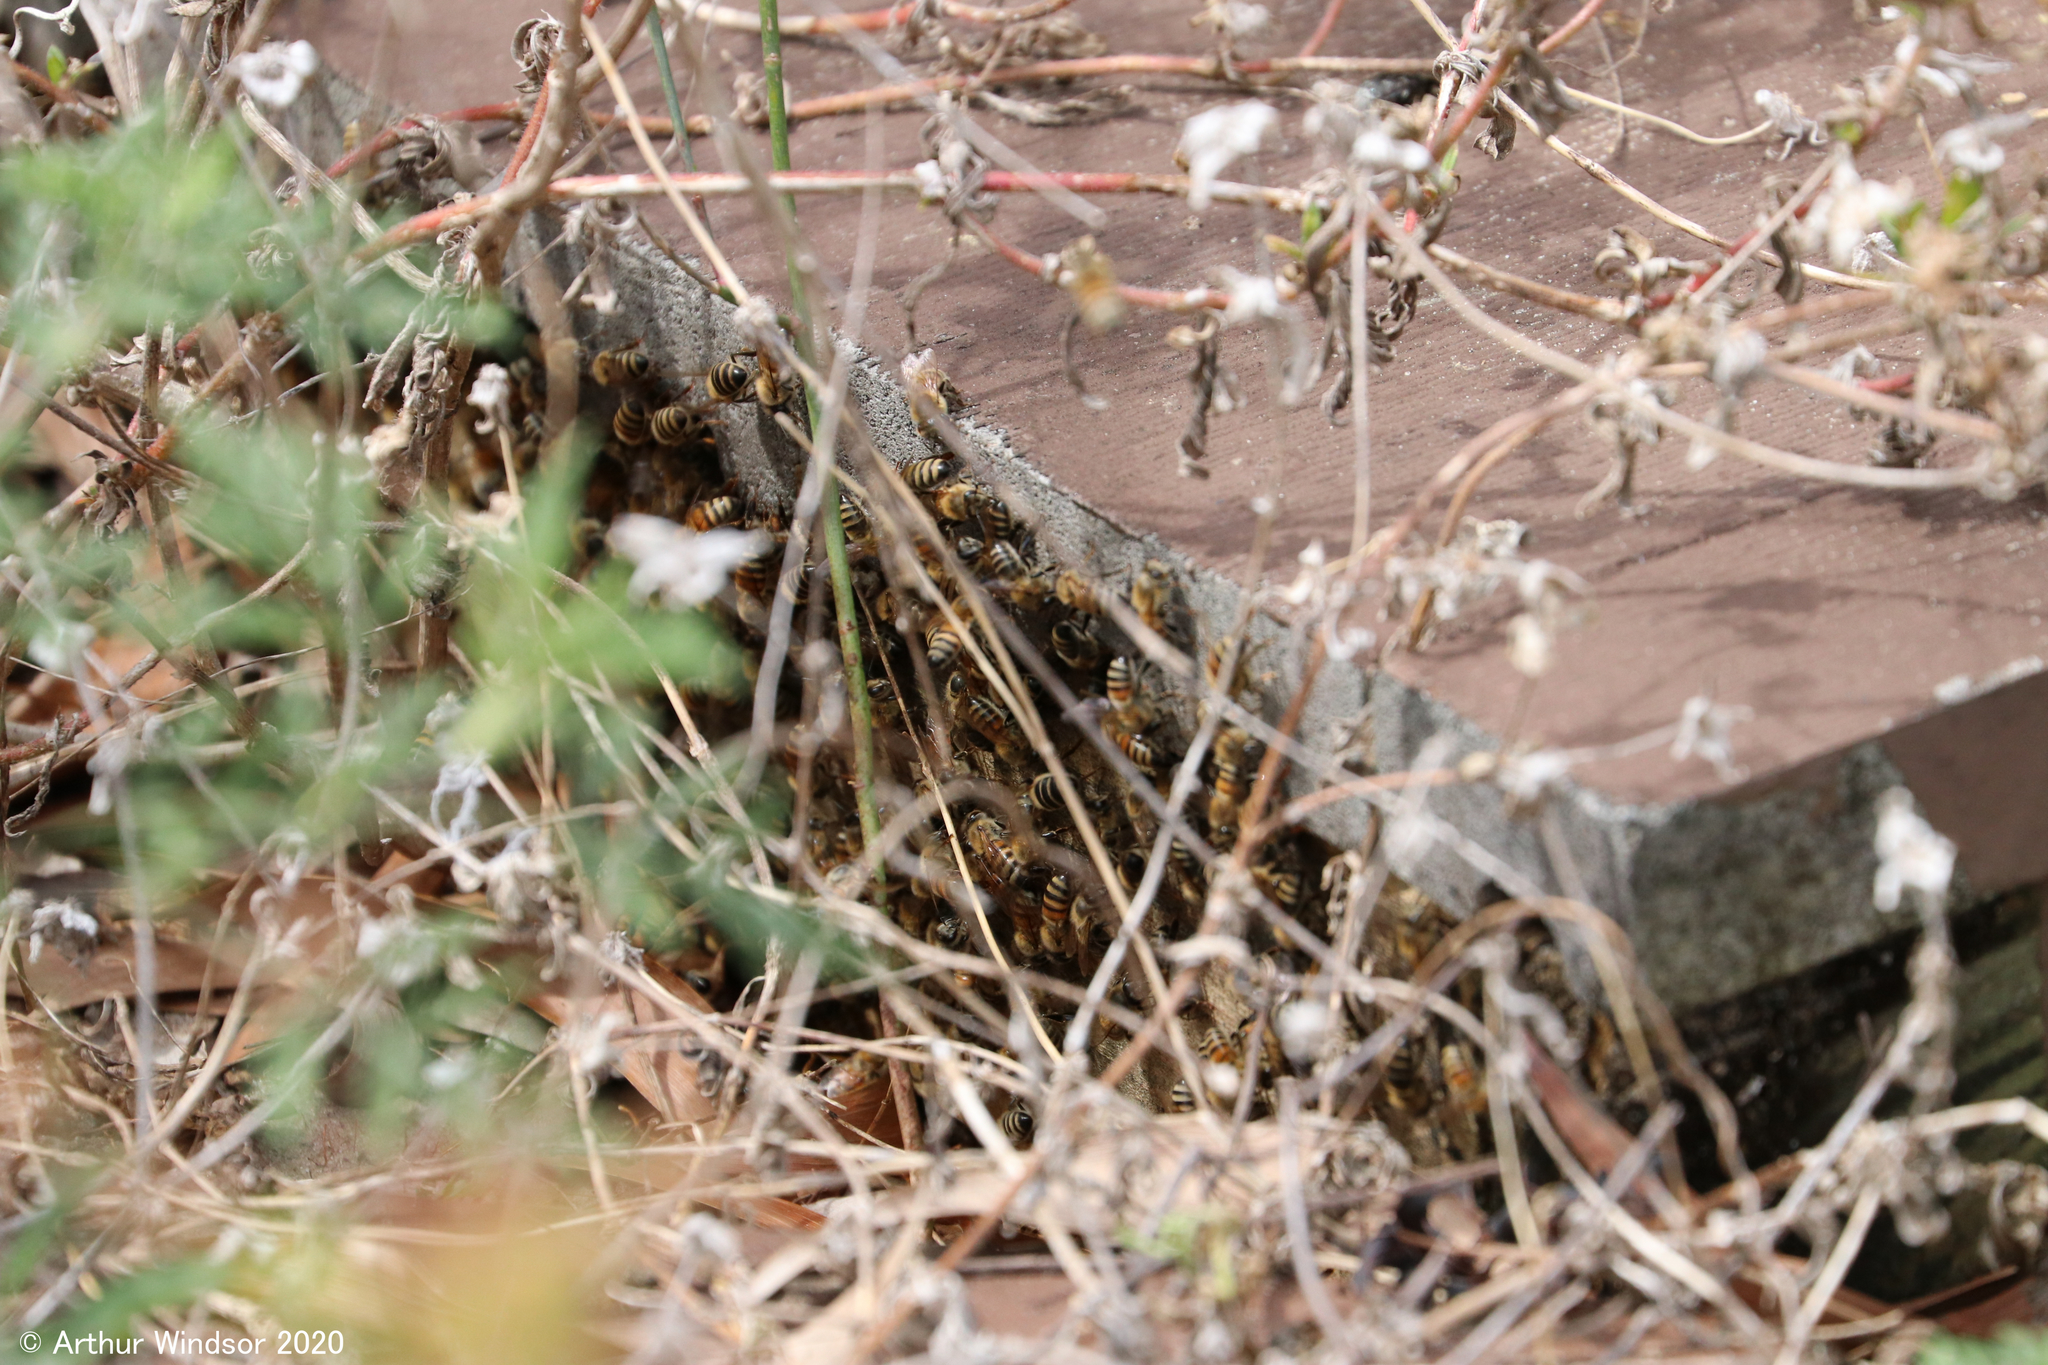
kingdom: Animalia
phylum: Arthropoda
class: Insecta
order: Hymenoptera
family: Apidae
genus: Apis
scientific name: Apis mellifera
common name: Honey bee
